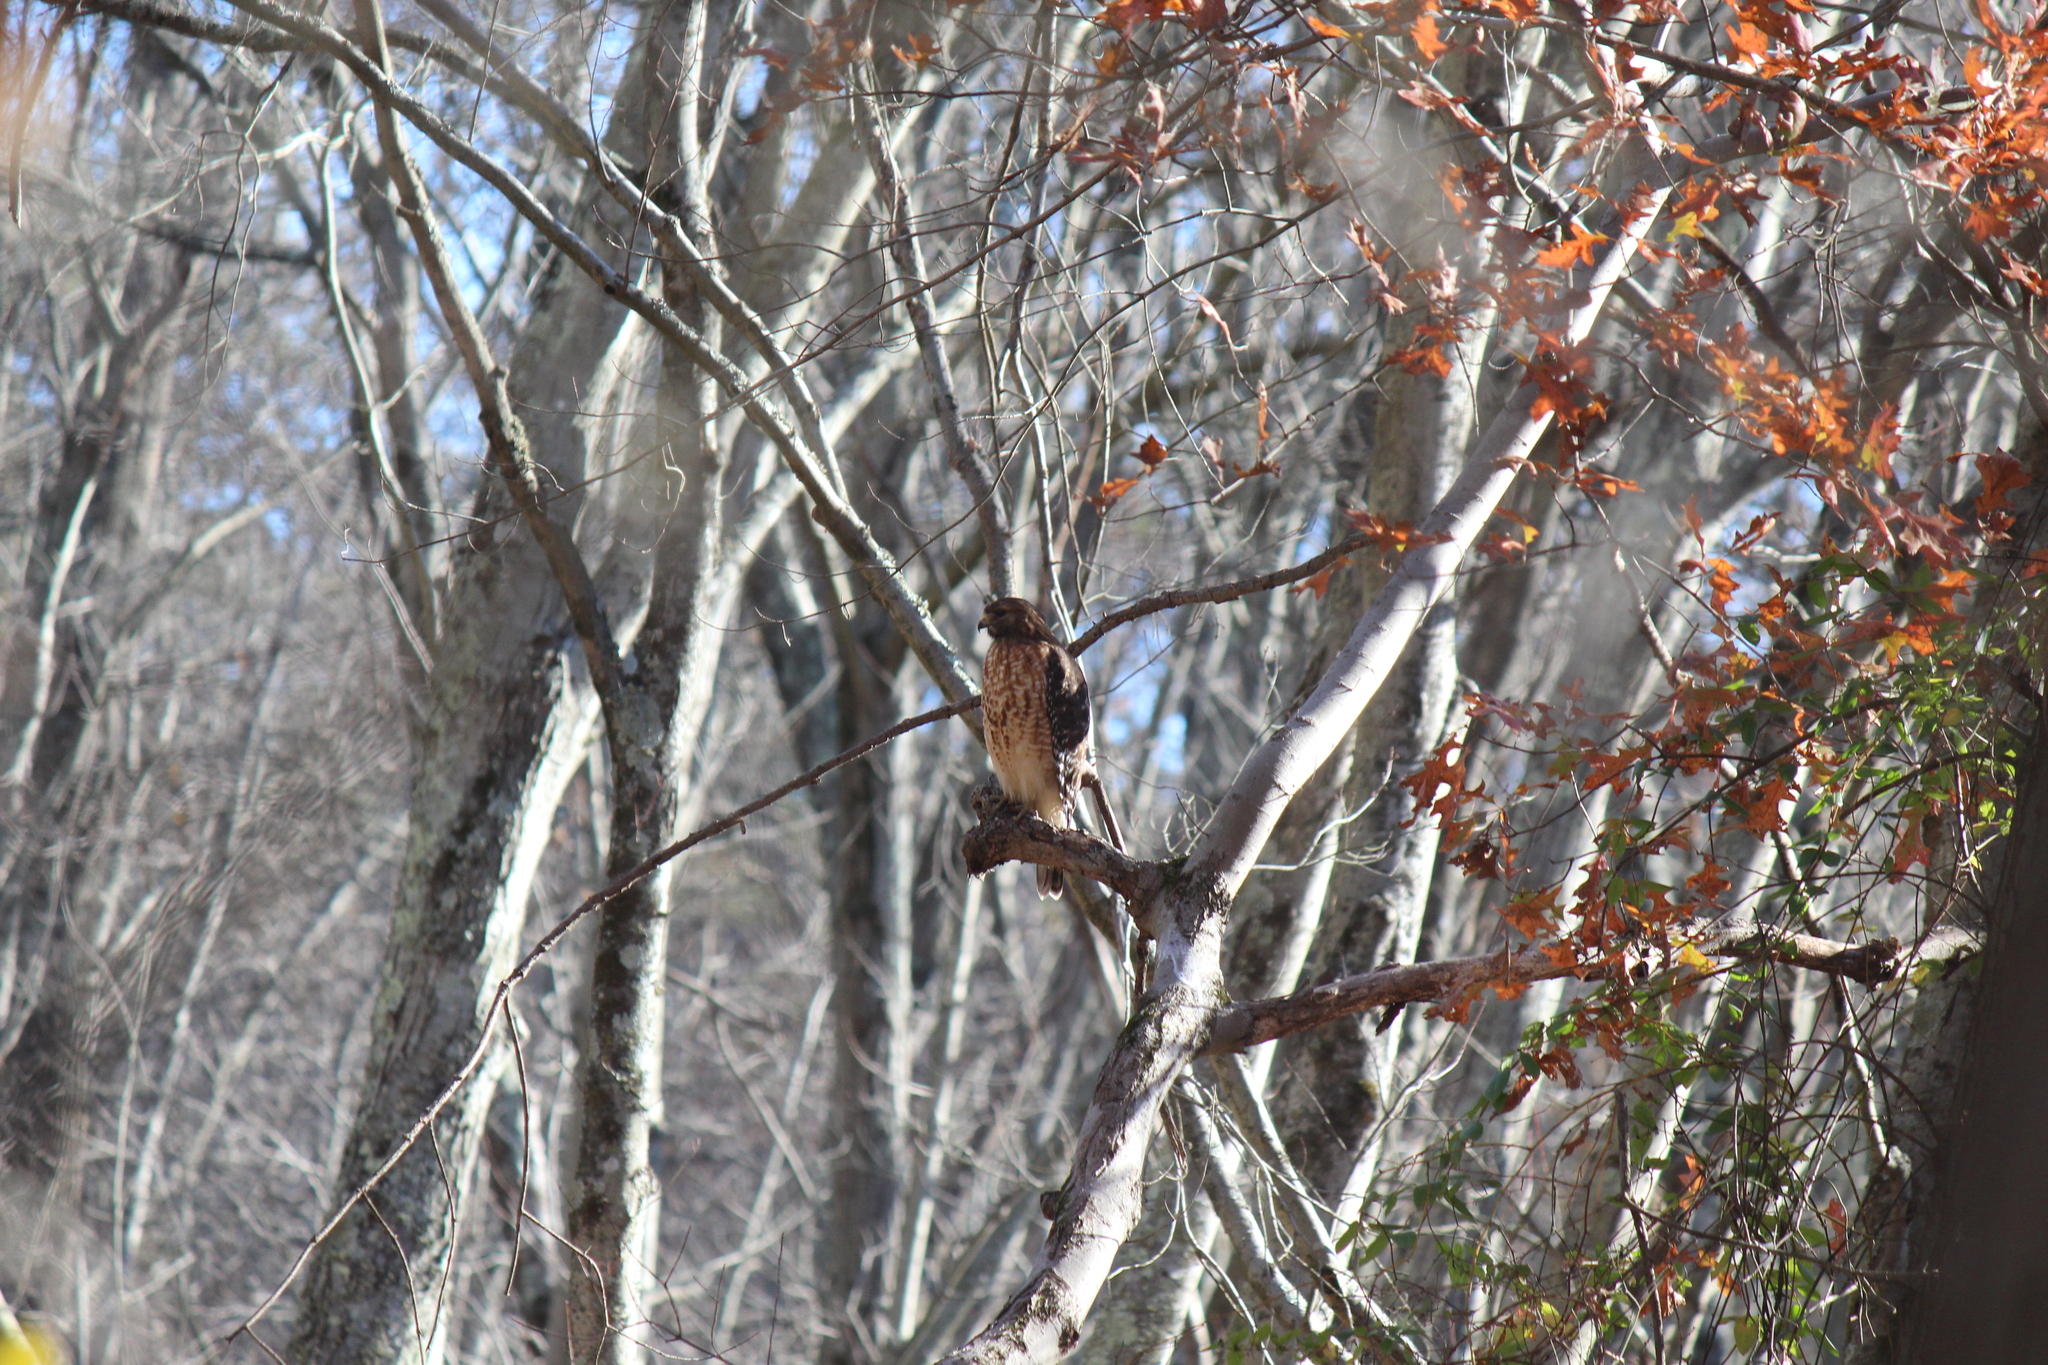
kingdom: Animalia
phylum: Chordata
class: Aves
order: Accipitriformes
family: Accipitridae
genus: Buteo
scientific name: Buteo lineatus
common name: Red-shouldered hawk
